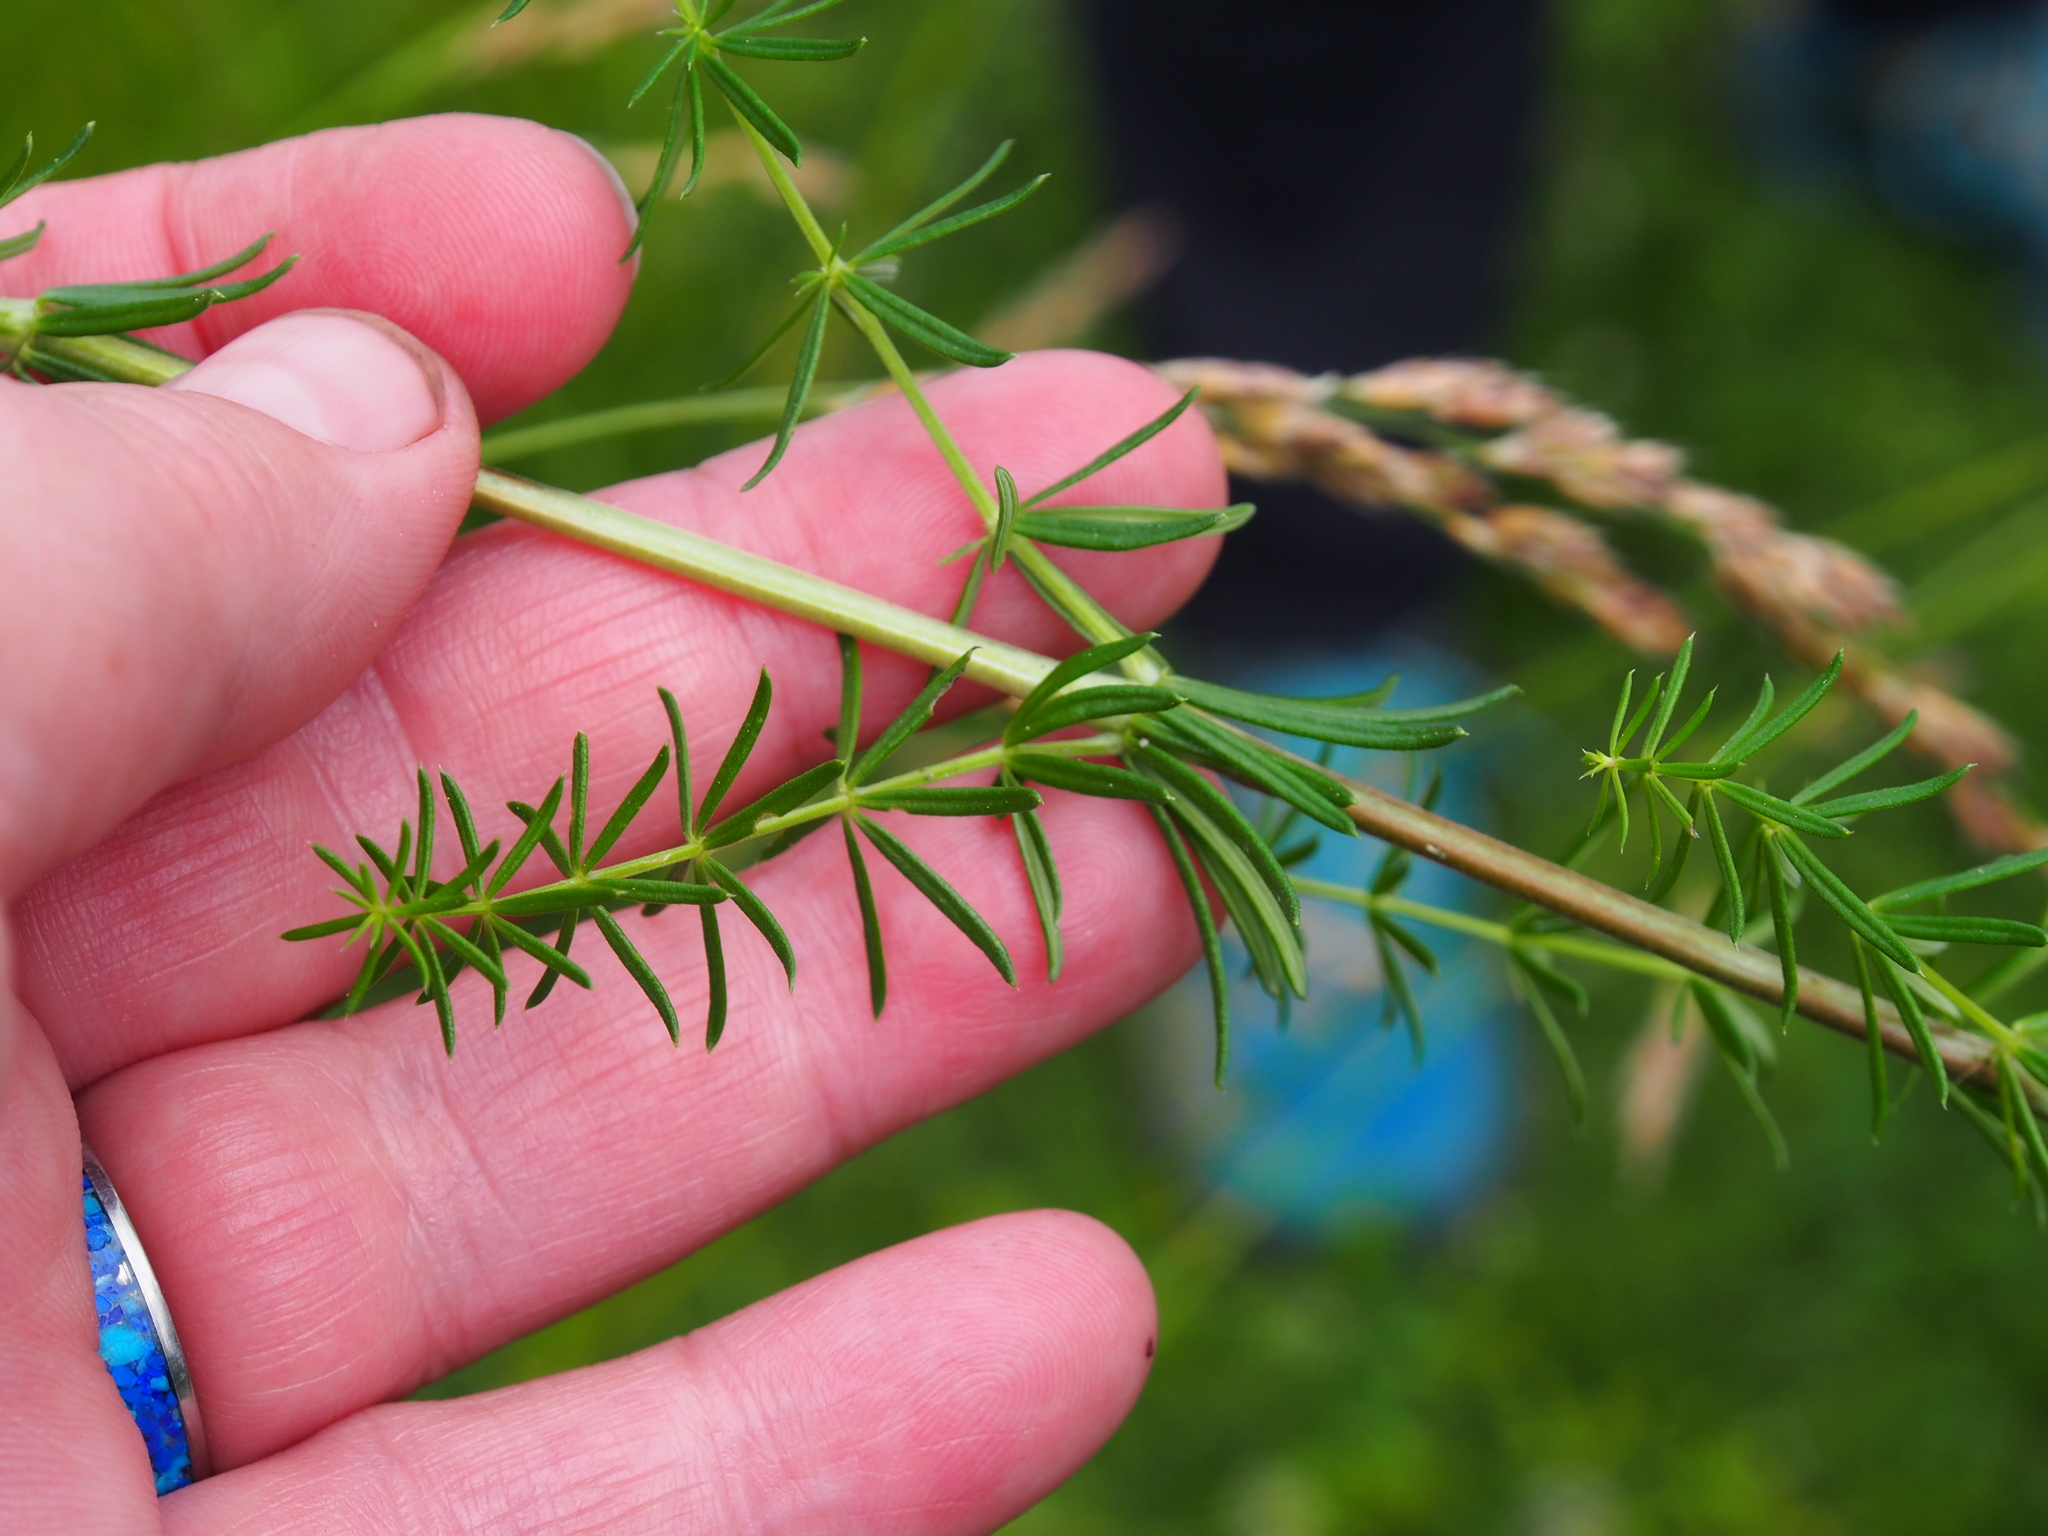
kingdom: Plantae
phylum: Tracheophyta
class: Magnoliopsida
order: Gentianales
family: Rubiaceae
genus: Galium
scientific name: Galium verum
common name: Lady's bedstraw
